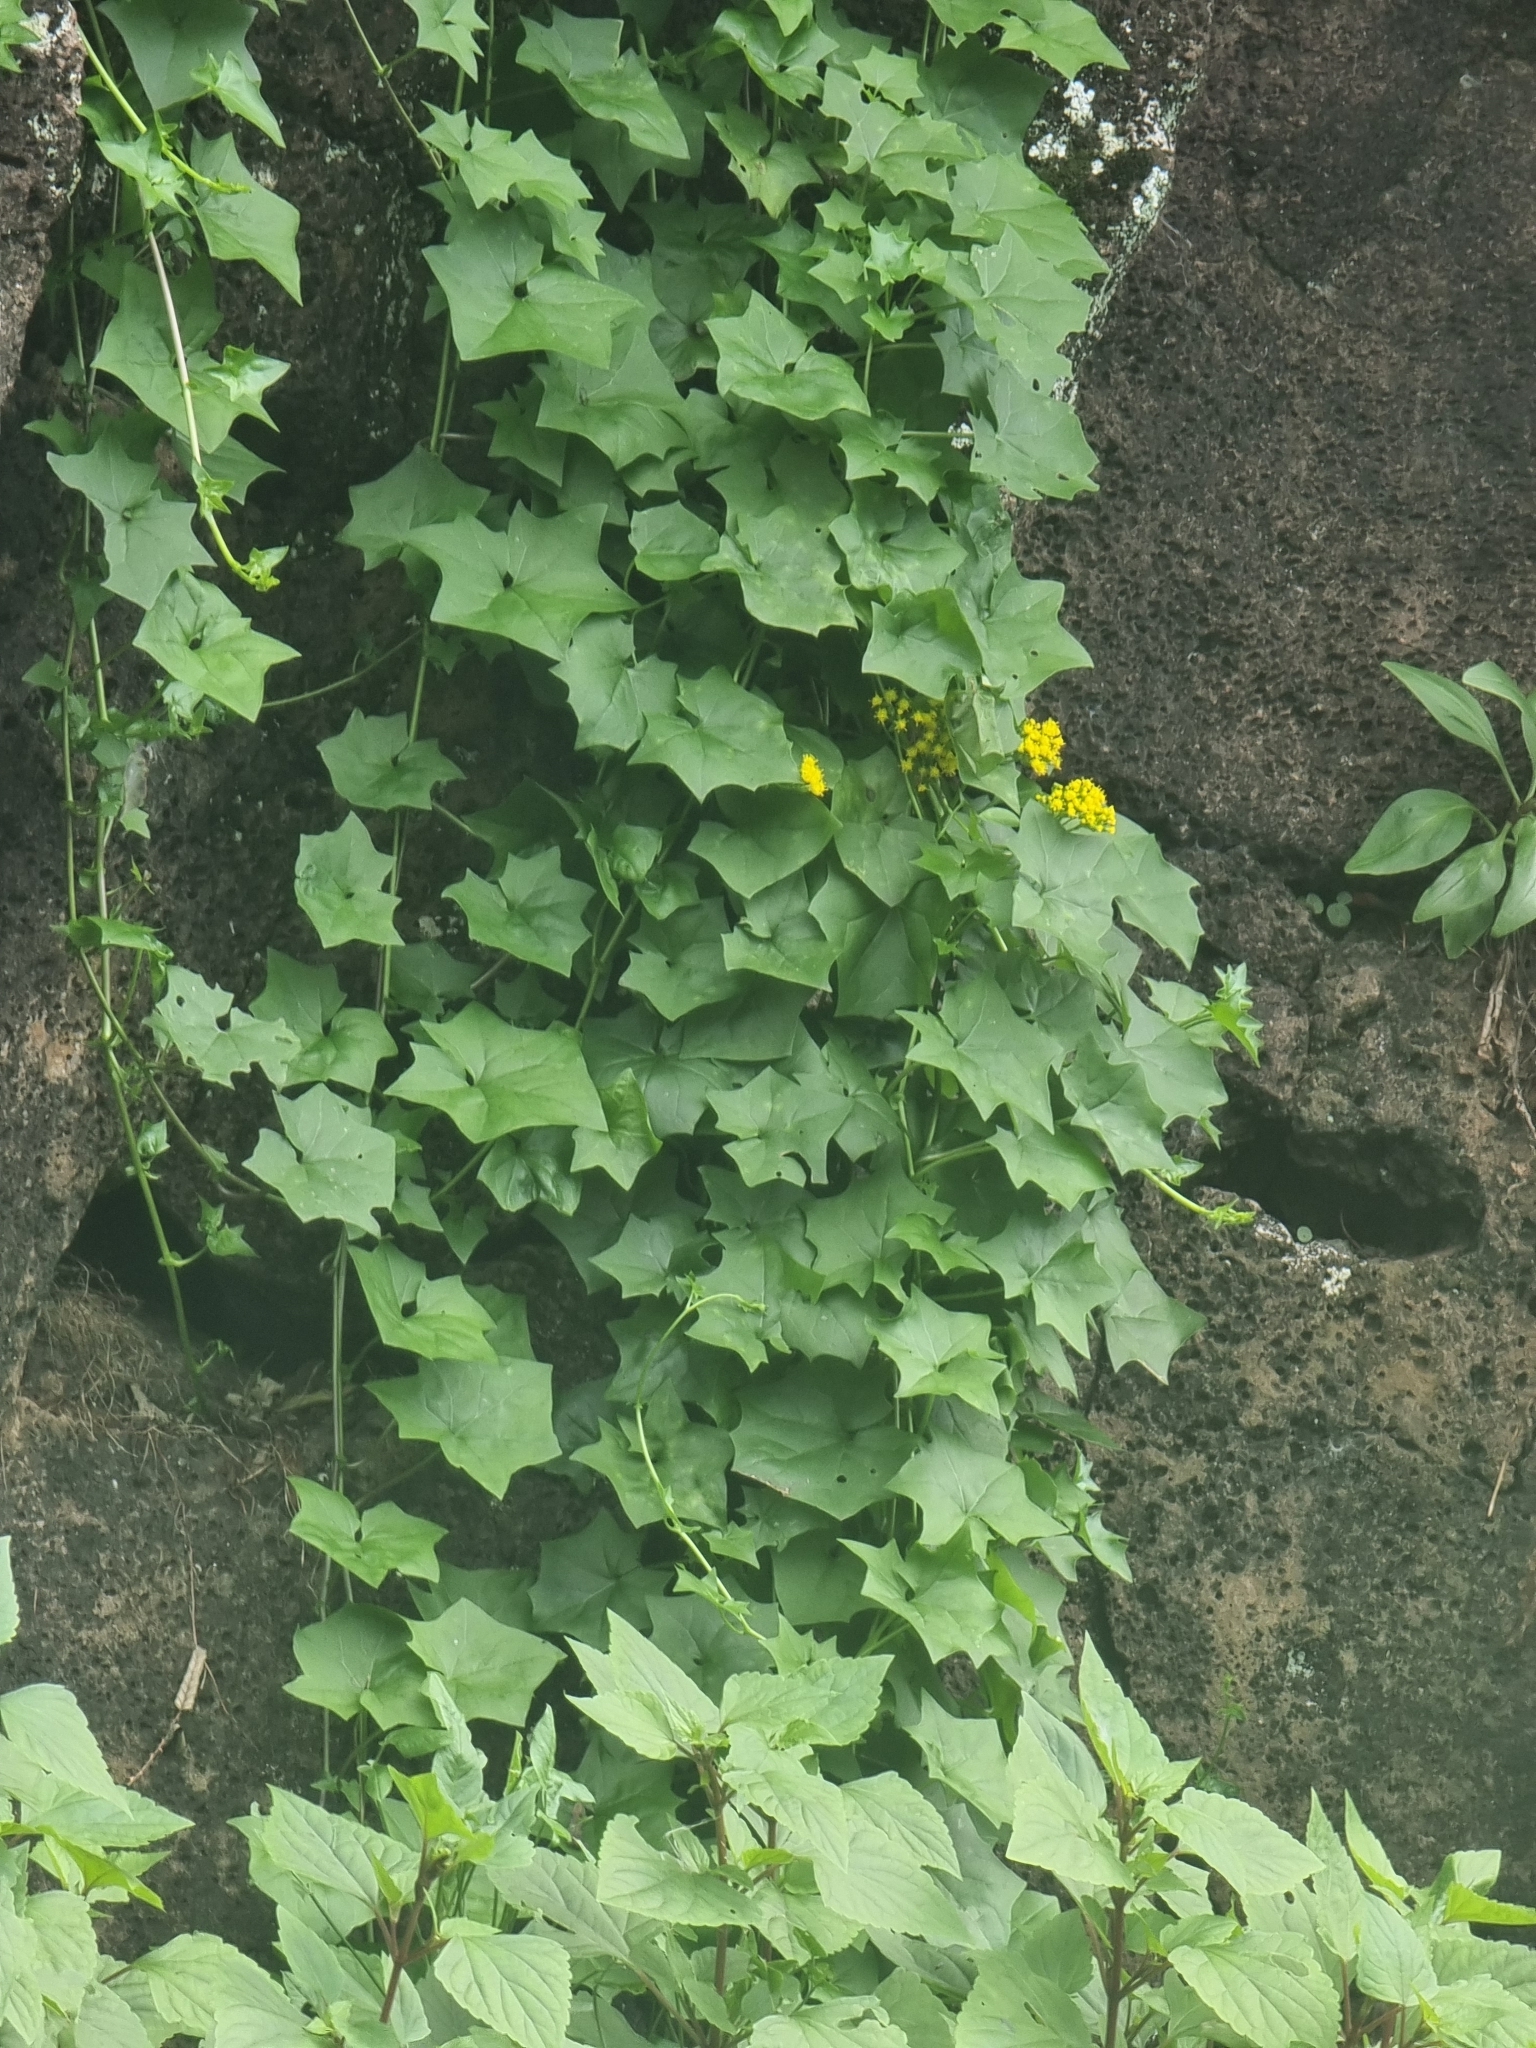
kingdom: Plantae
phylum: Tracheophyta
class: Magnoliopsida
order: Asterales
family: Asteraceae
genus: Delairea
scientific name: Delairea odorata
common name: Cape-ivy
